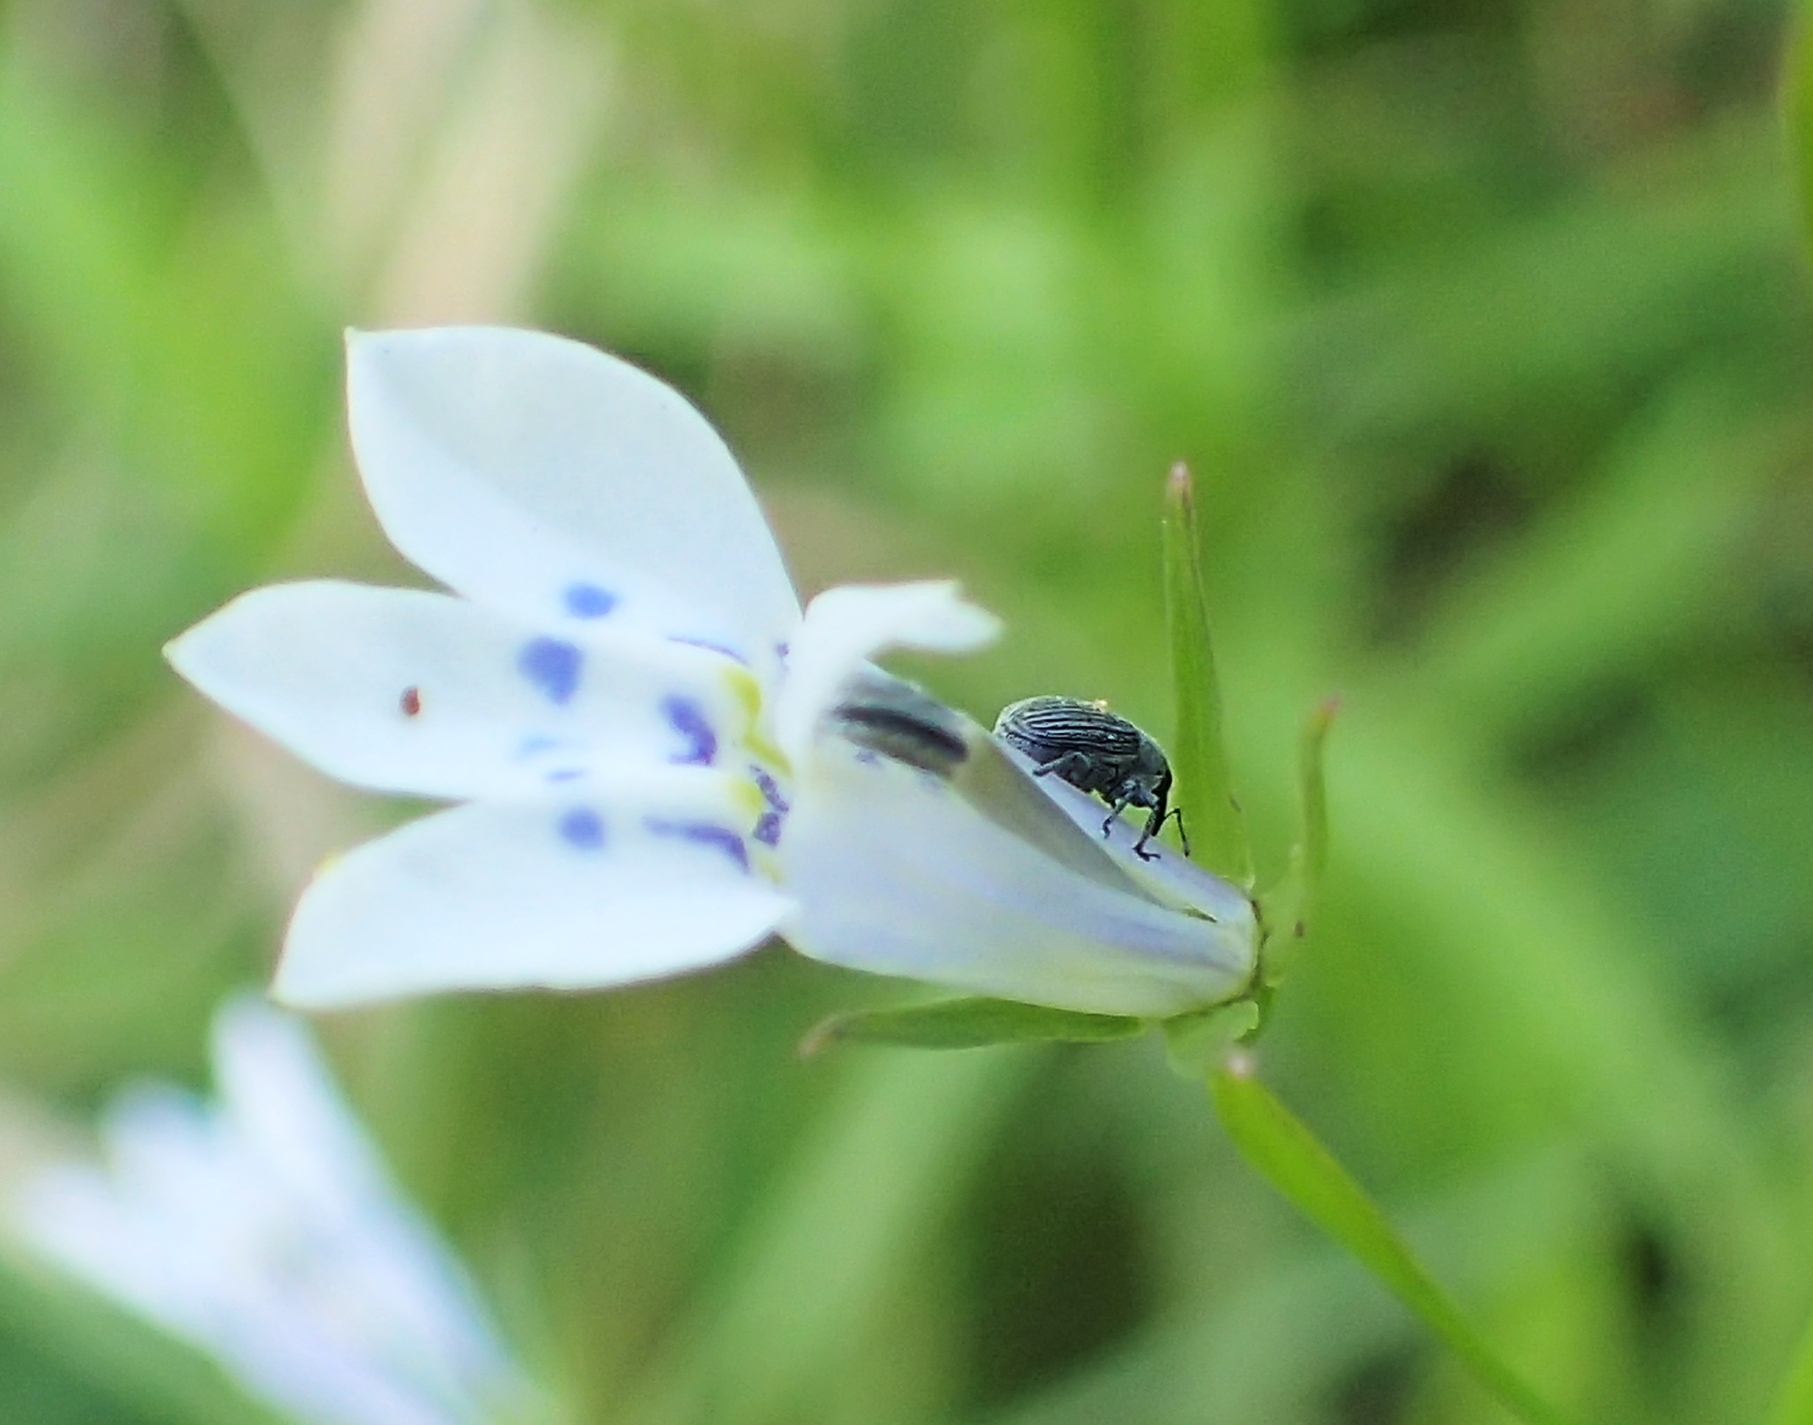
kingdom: Plantae
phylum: Tracheophyta
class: Magnoliopsida
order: Asterales
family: Campanulaceae
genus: Lobelia
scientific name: Lobelia flaccida
